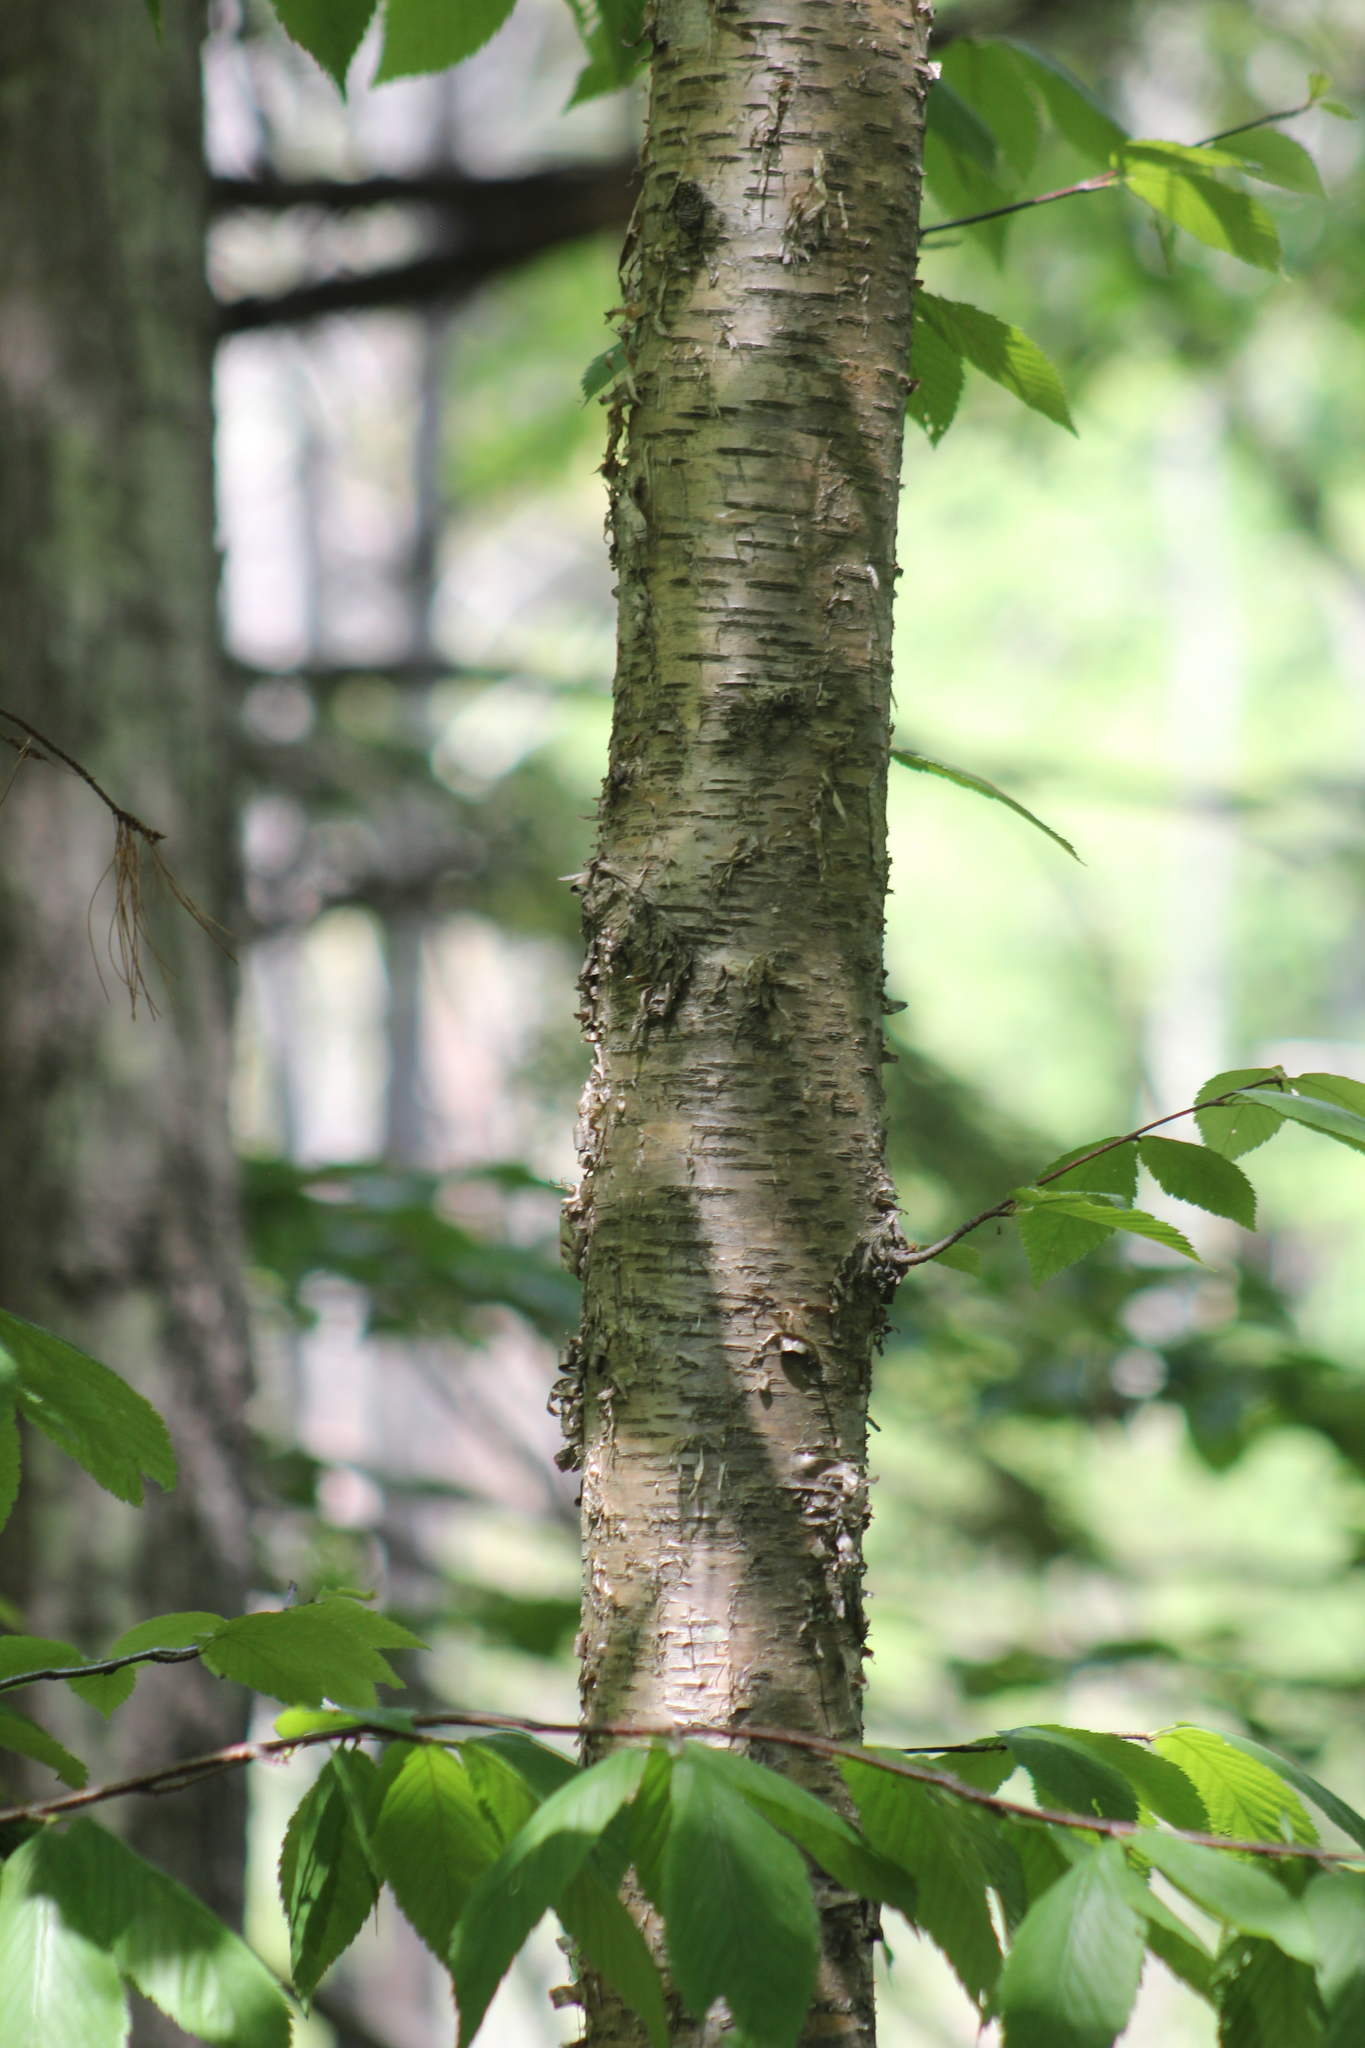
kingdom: Plantae
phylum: Tracheophyta
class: Magnoliopsida
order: Fagales
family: Betulaceae
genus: Betula
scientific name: Betula alleghaniensis
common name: Yellow birch
